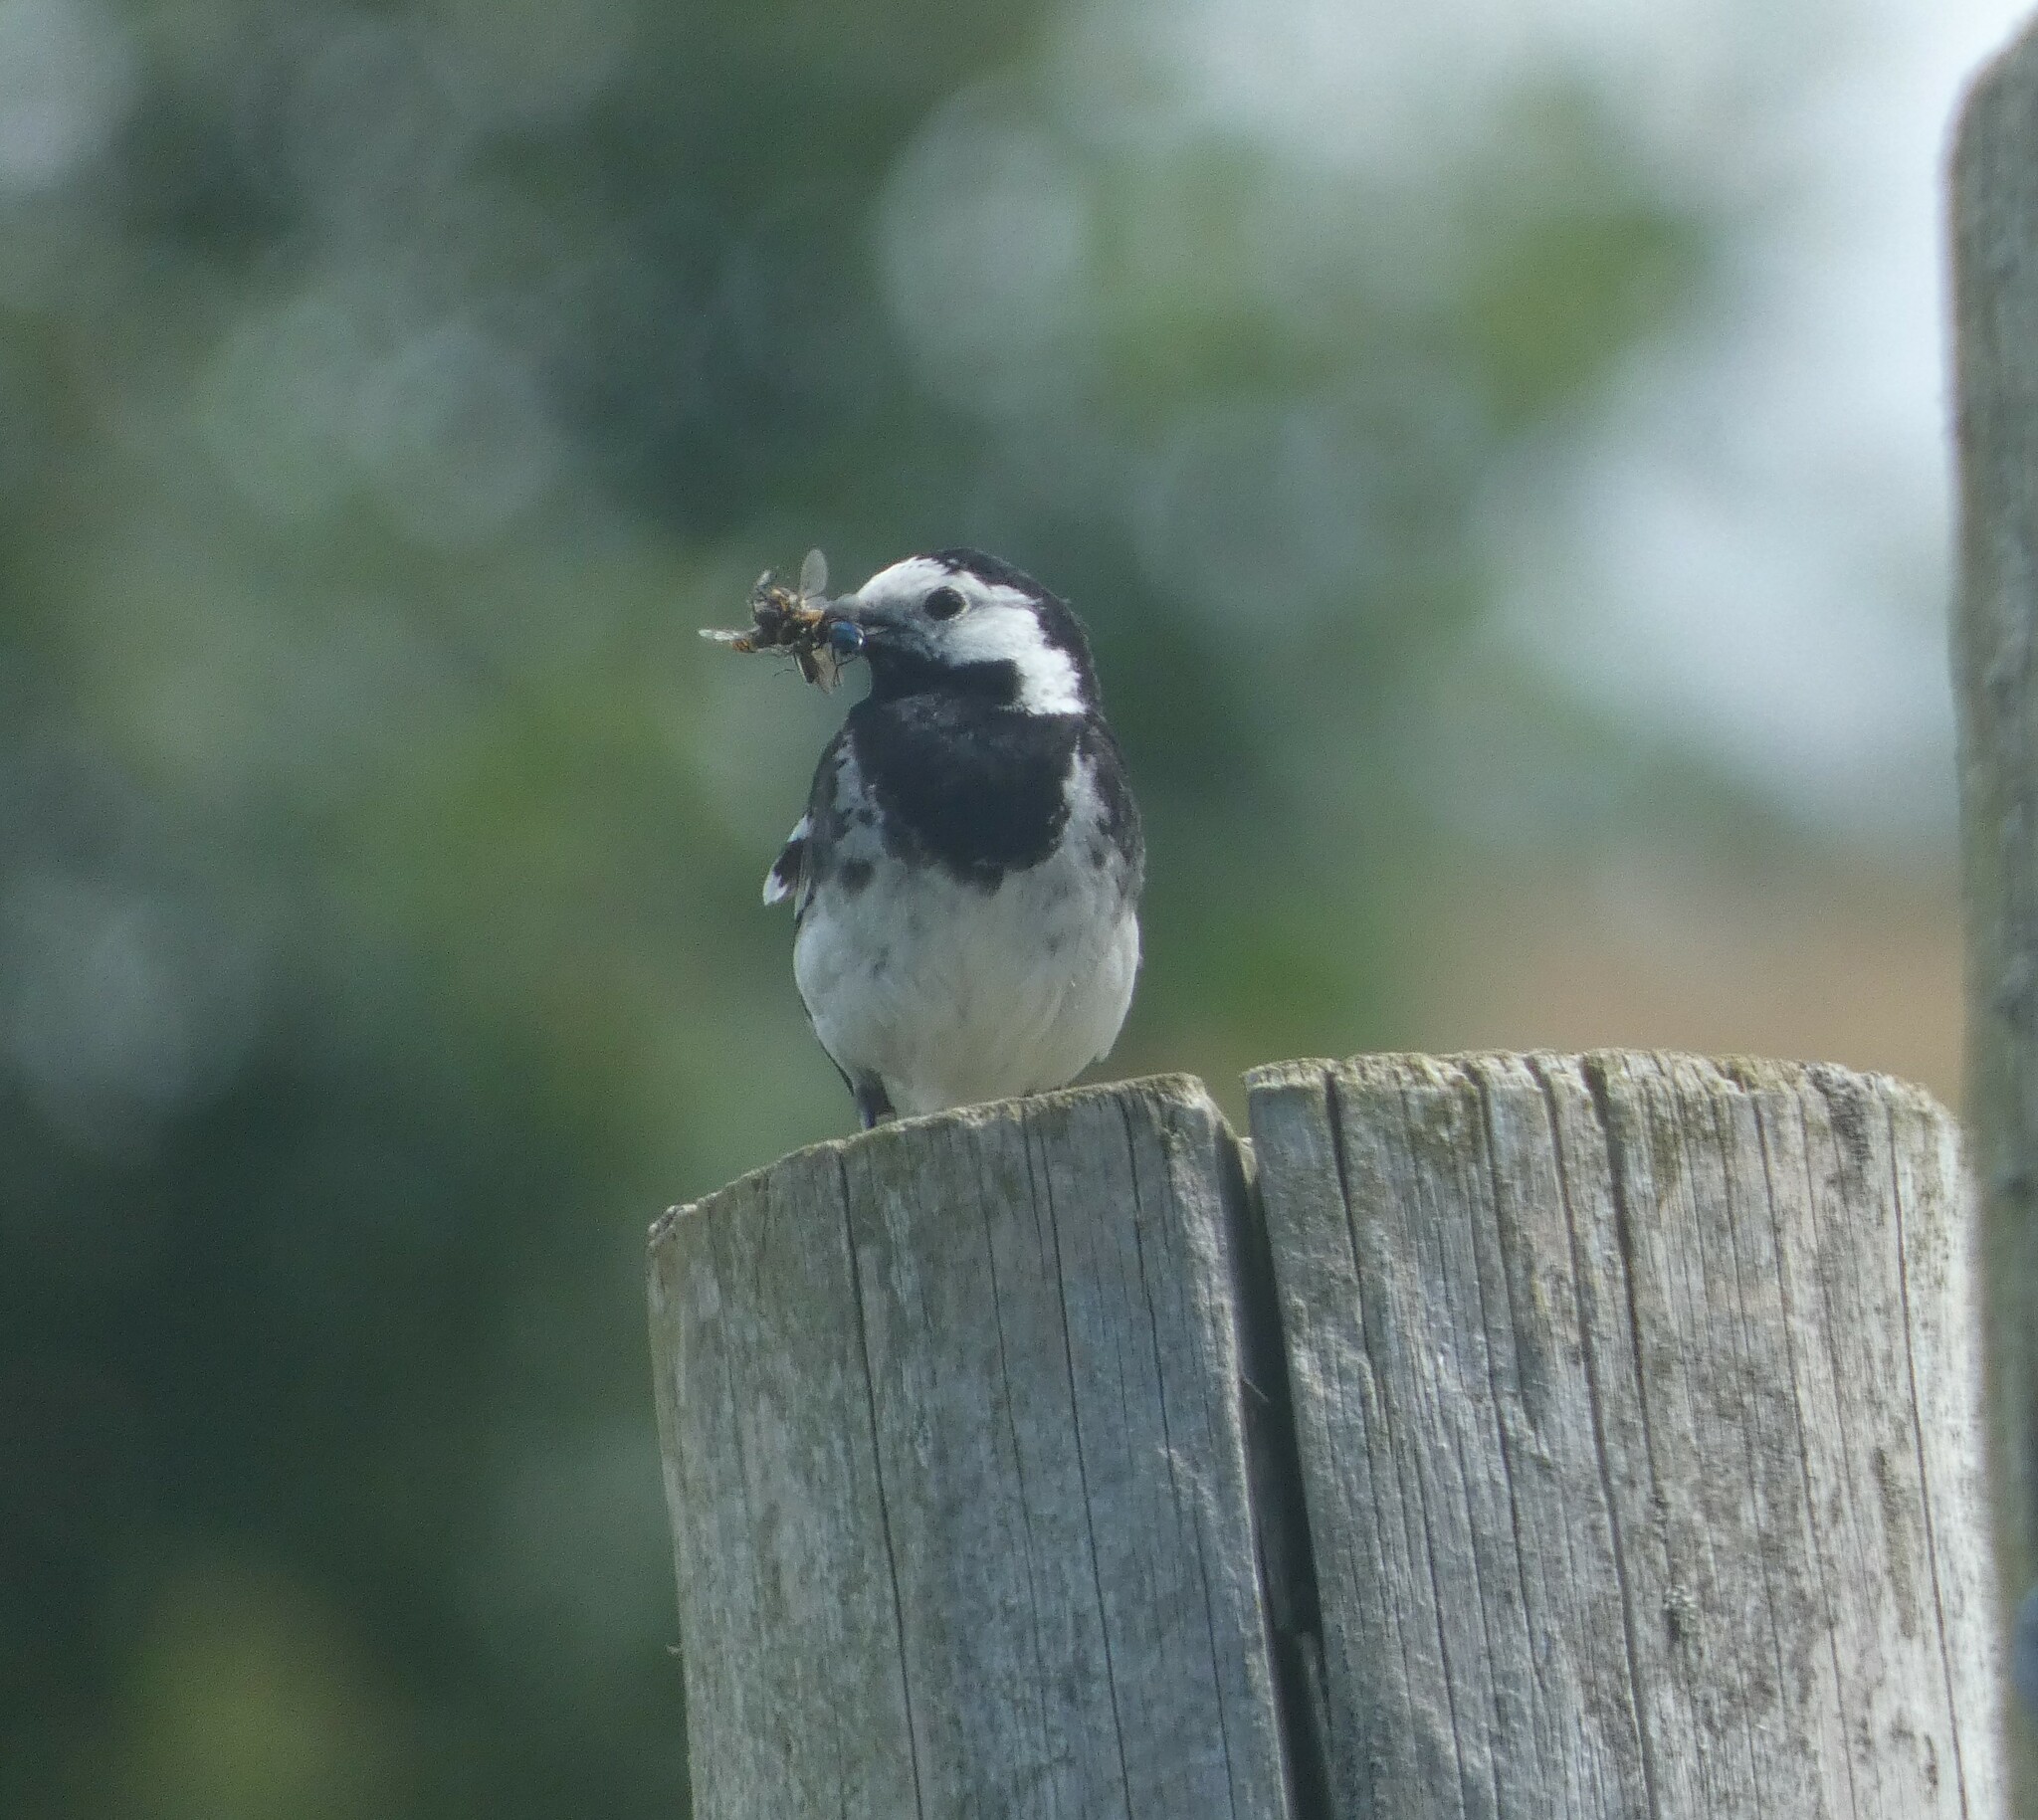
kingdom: Animalia
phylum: Chordata
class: Aves
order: Passeriformes
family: Motacillidae
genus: Motacilla
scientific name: Motacilla alba
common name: White wagtail
